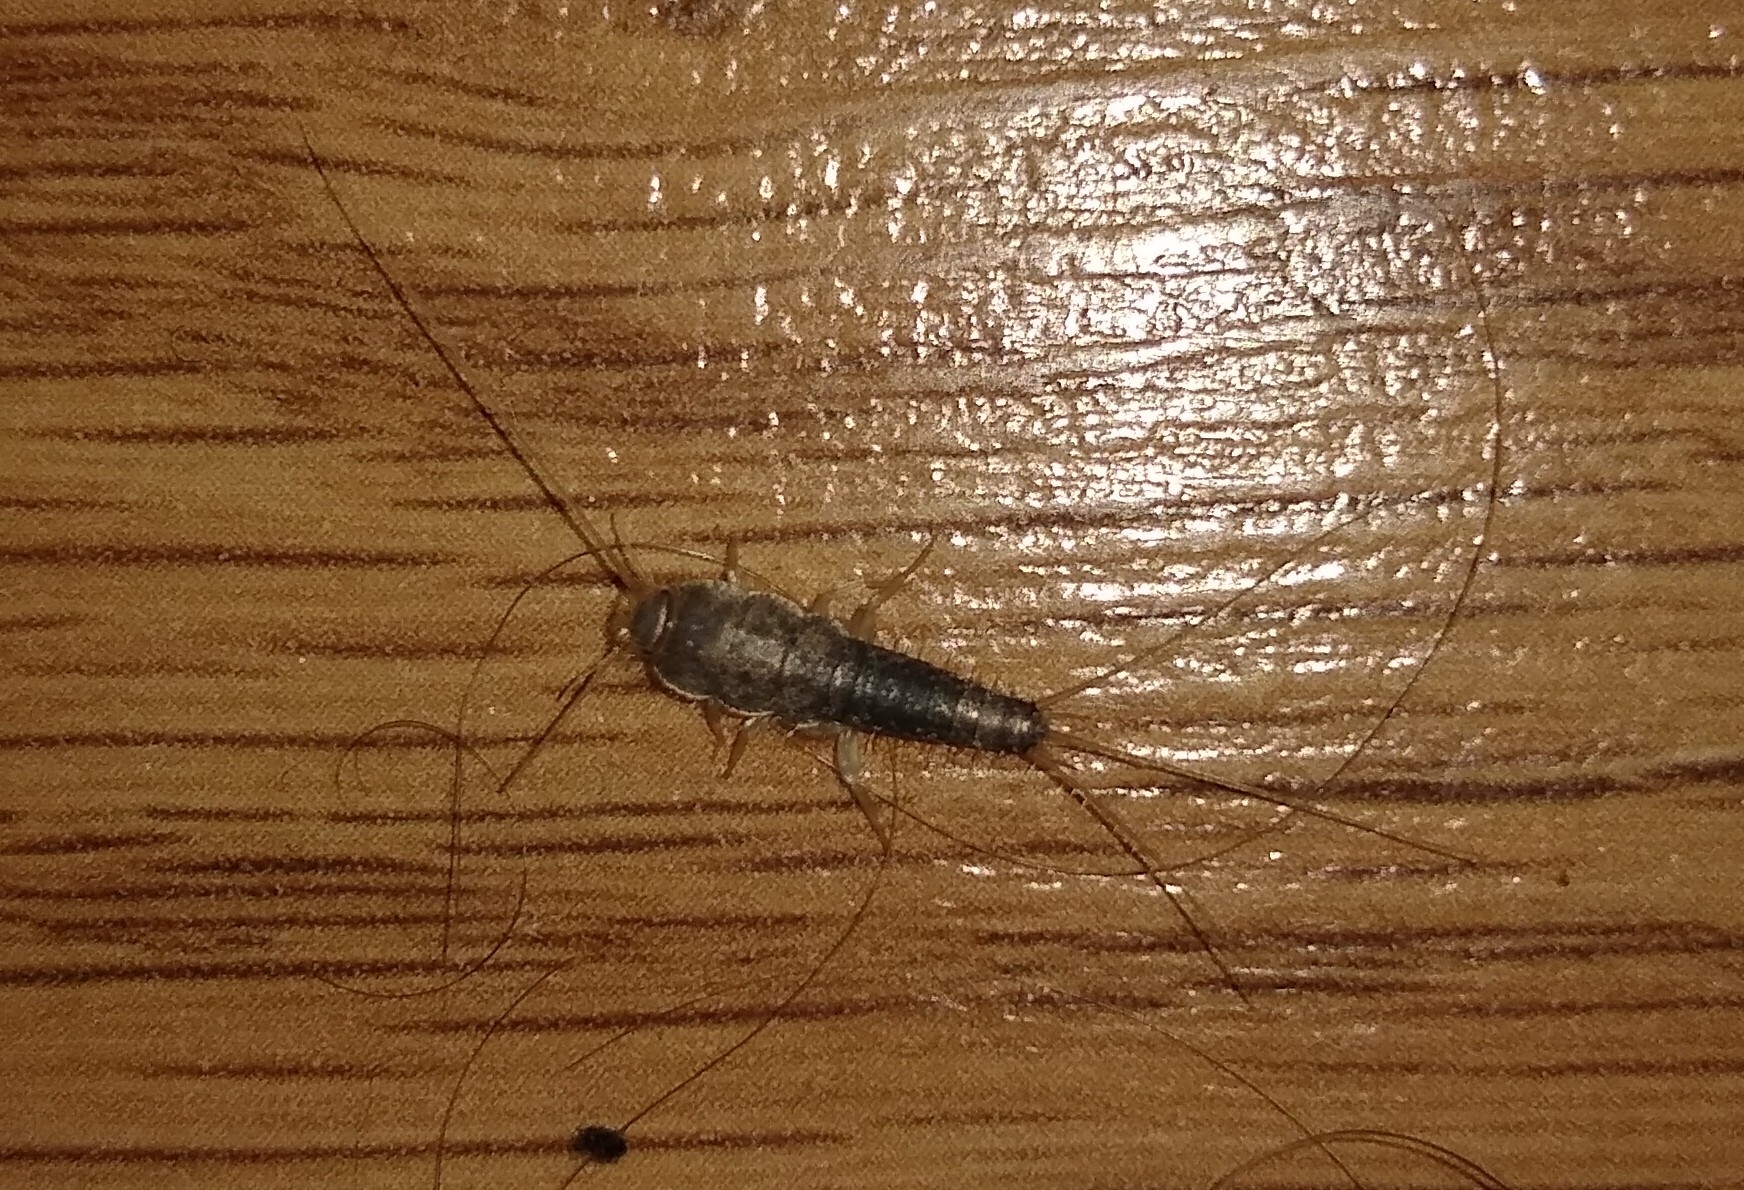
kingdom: Animalia
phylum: Arthropoda
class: Insecta
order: Zygentoma
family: Lepismatidae
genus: Ctenolepisma
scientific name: Ctenolepisma longicaudatum
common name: Silverfish
